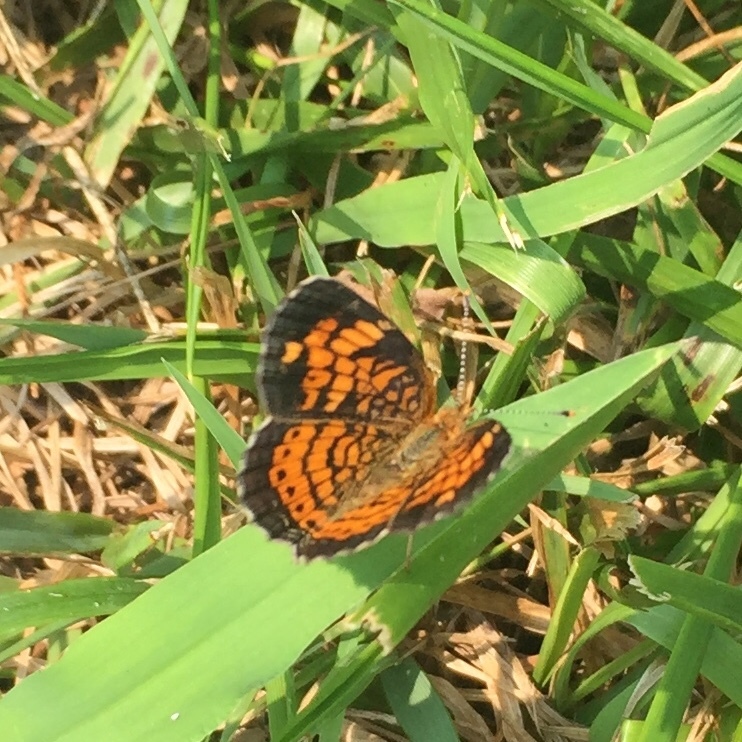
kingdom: Animalia
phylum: Arthropoda
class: Insecta
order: Lepidoptera
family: Nymphalidae
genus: Phyciodes
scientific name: Phyciodes tharos
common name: Pearl crescent
